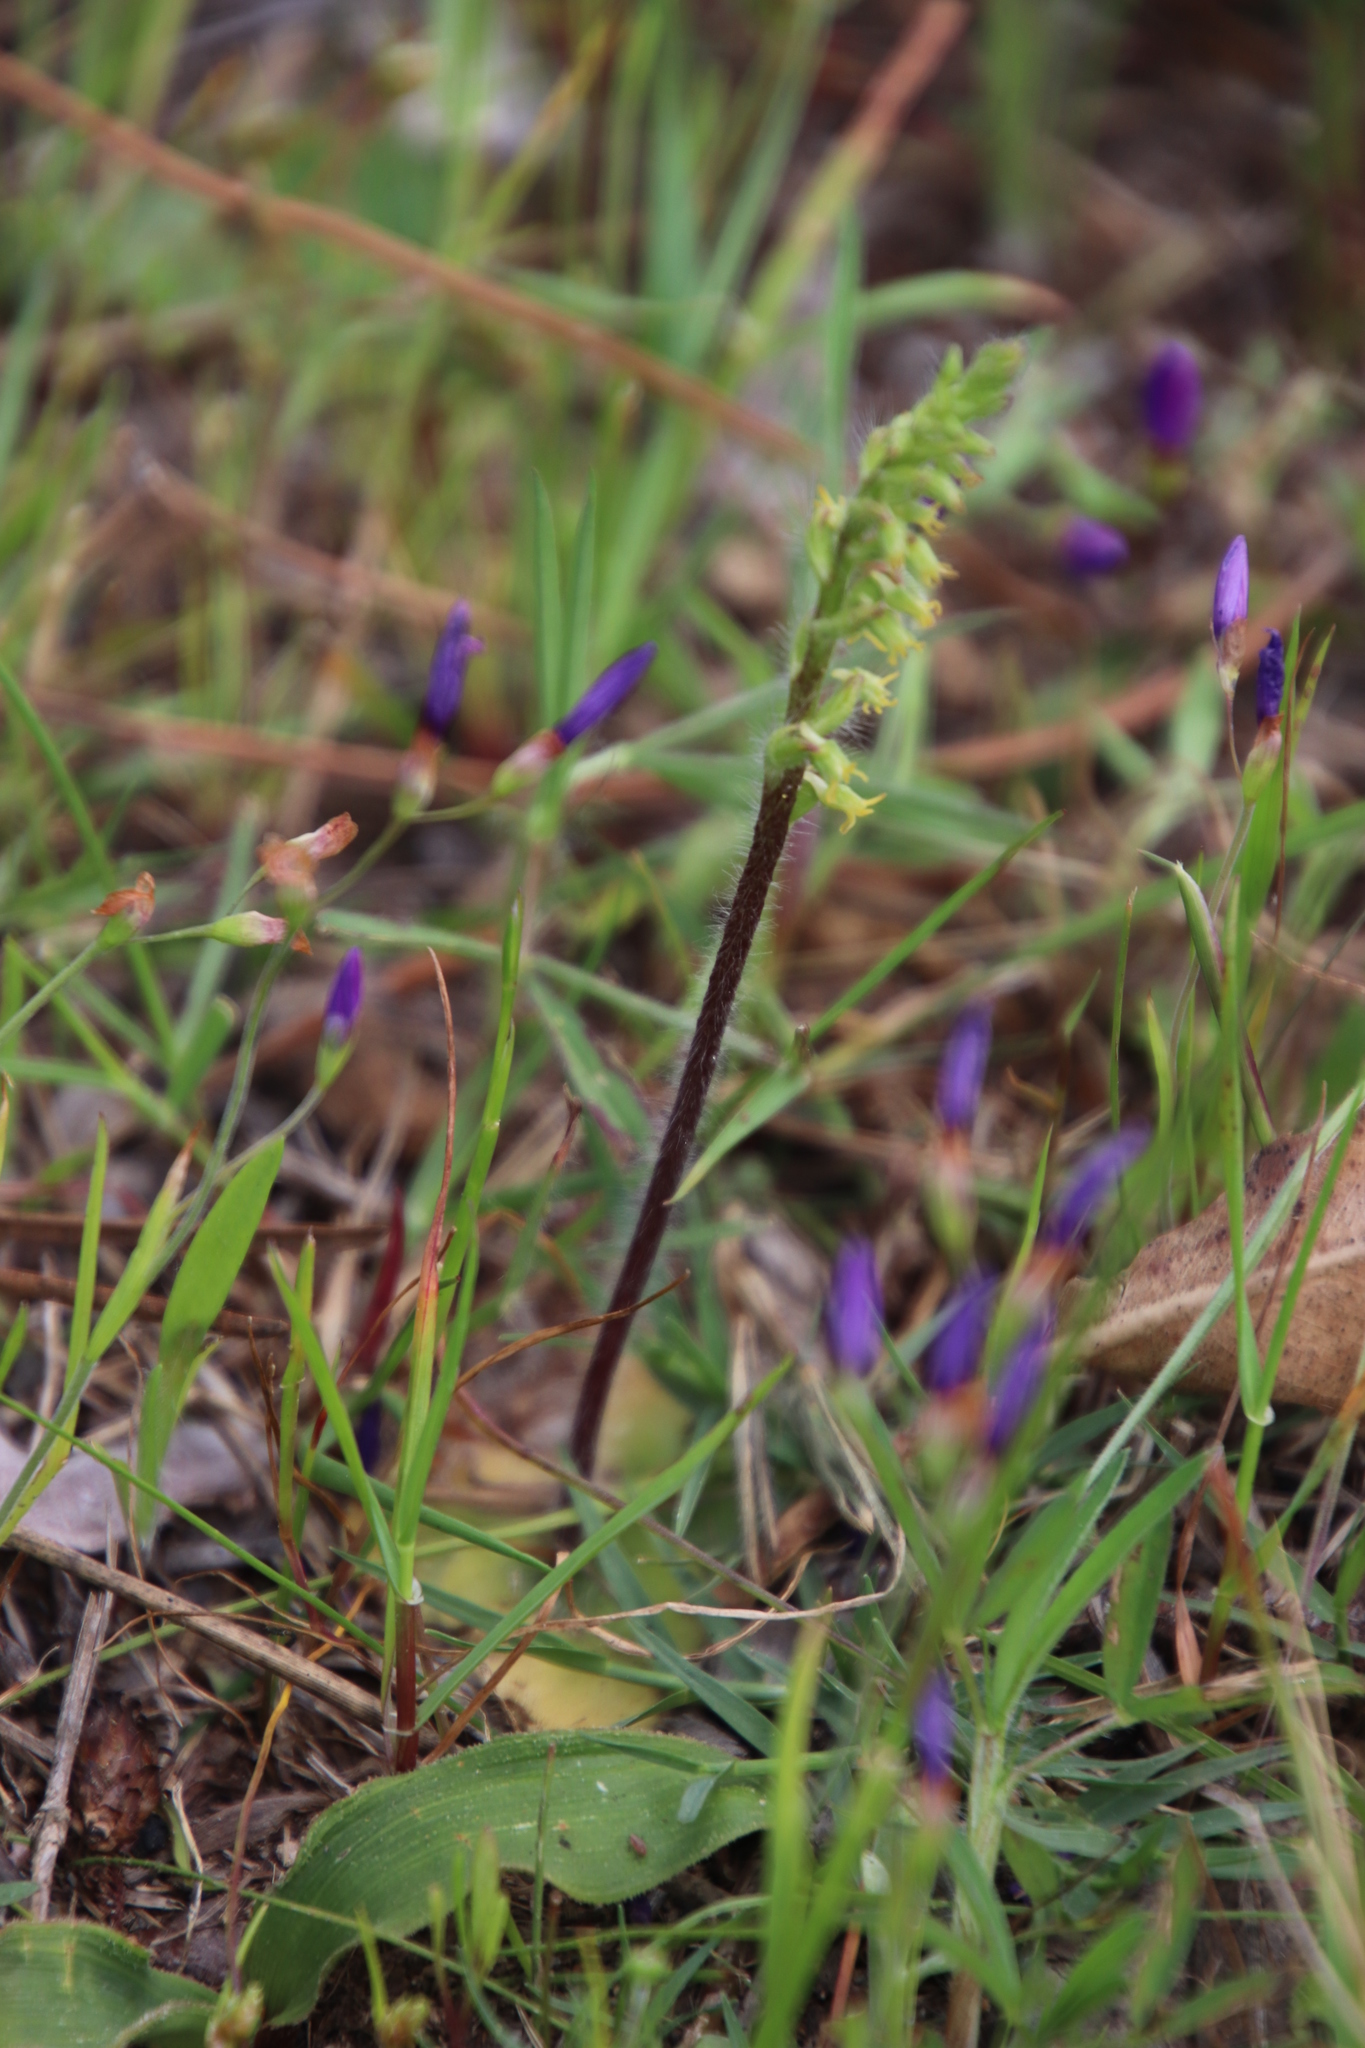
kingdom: Plantae
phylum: Tracheophyta
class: Liliopsida
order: Asparagales
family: Orchidaceae
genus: Holothrix
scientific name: Holothrix villosa
